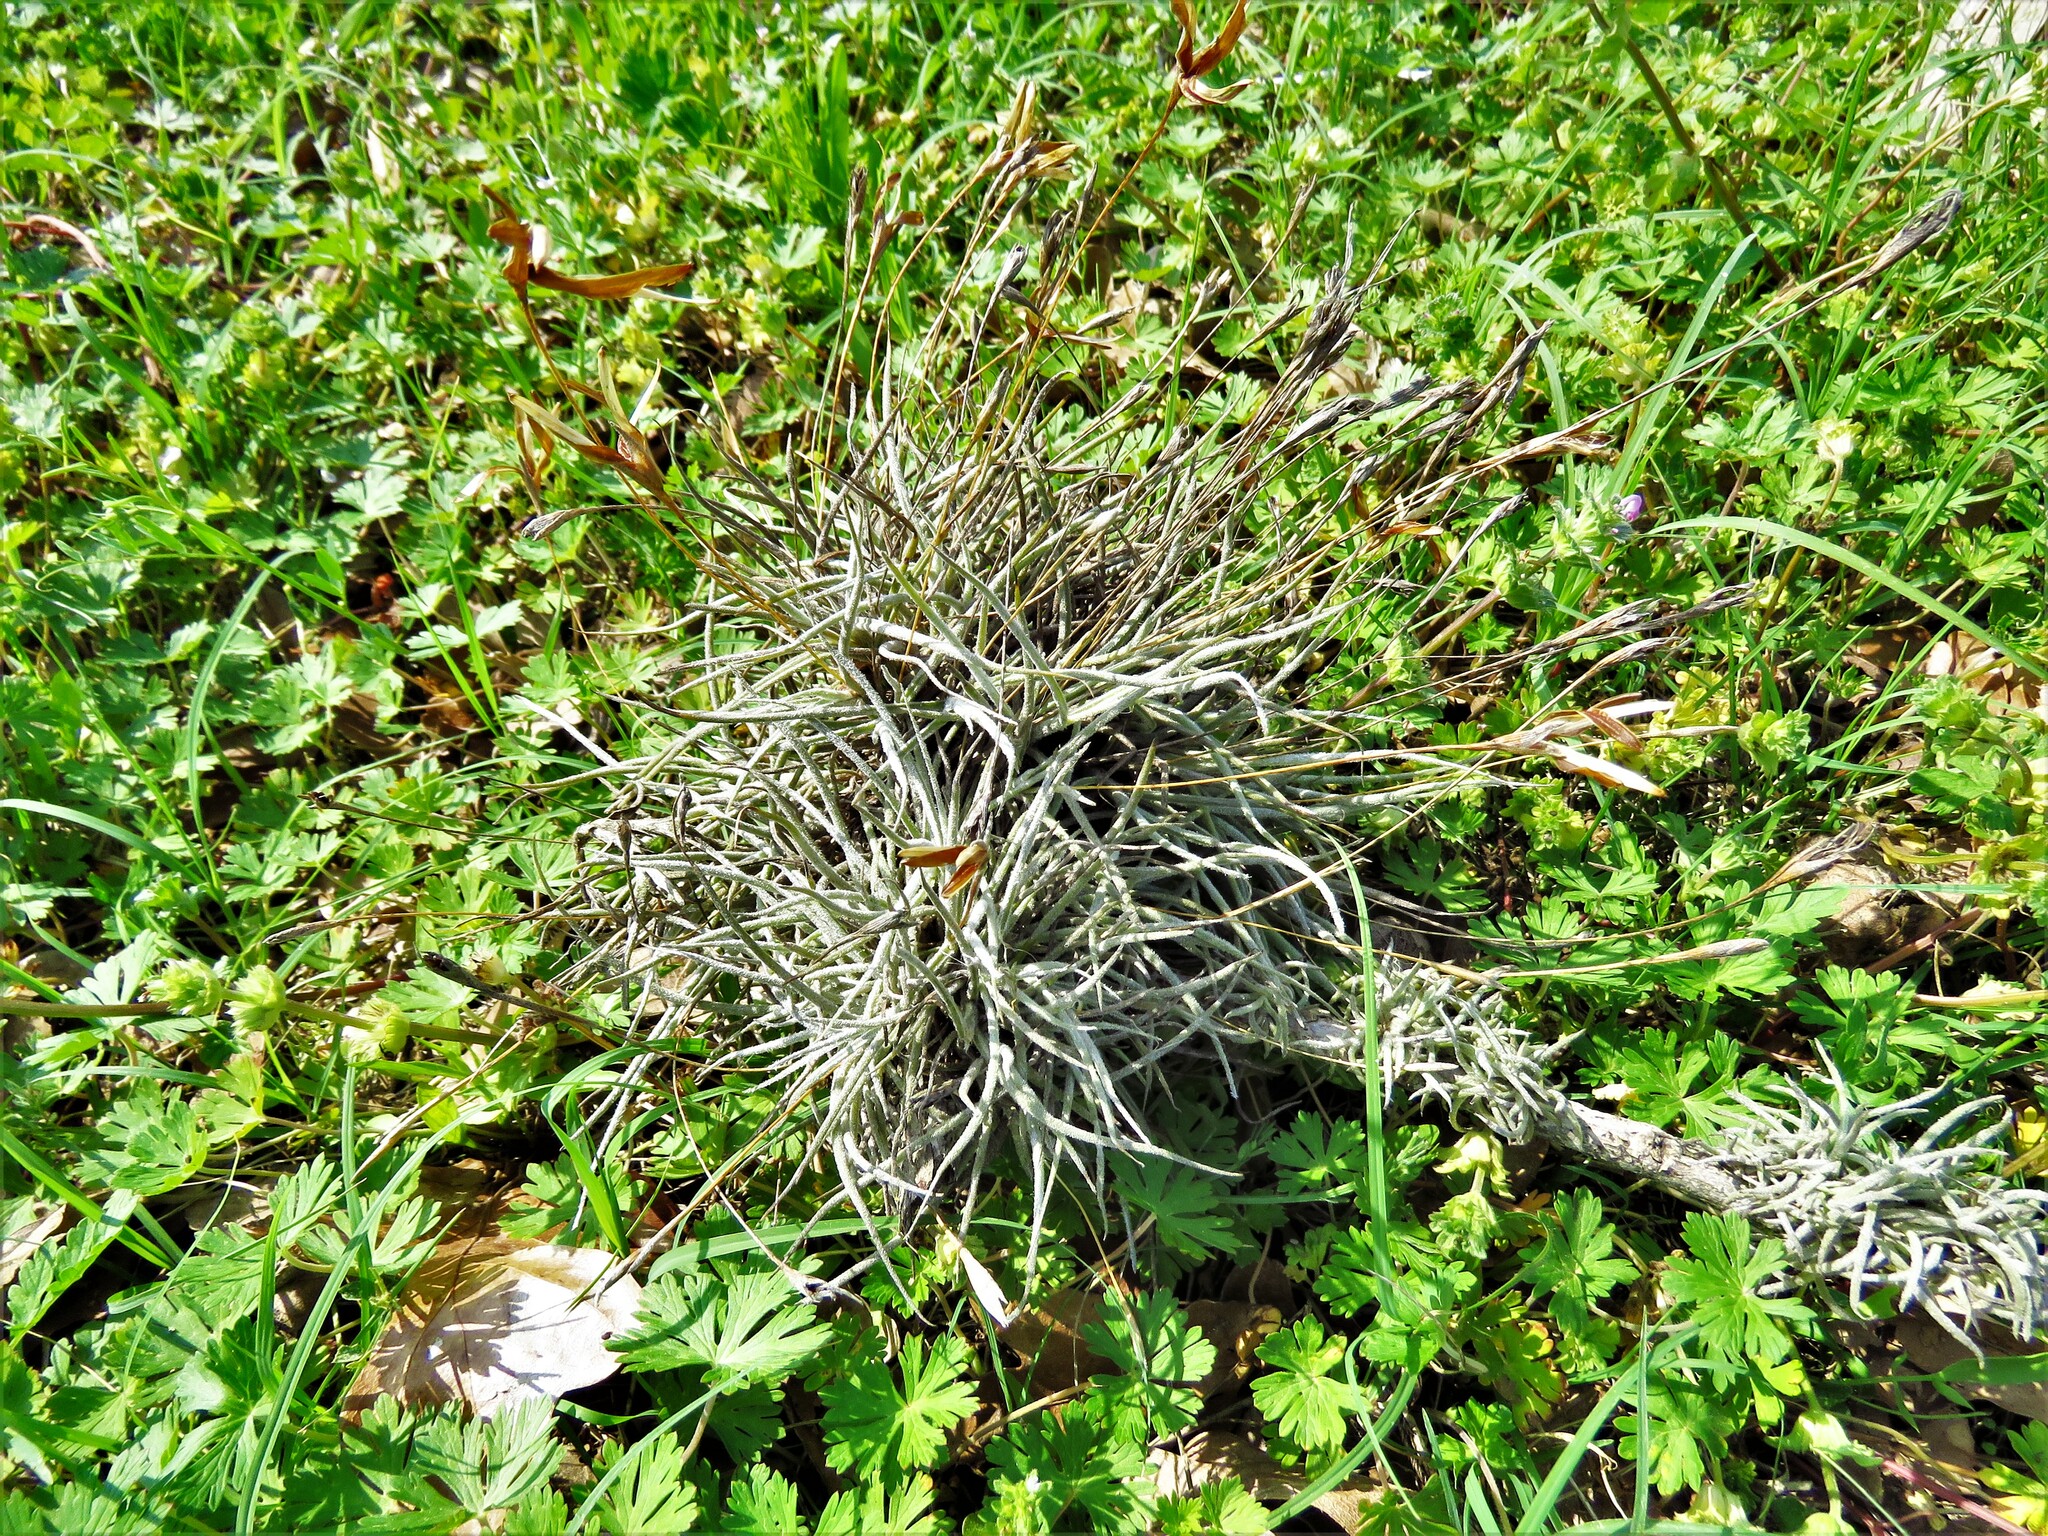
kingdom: Plantae
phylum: Tracheophyta
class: Liliopsida
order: Poales
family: Bromeliaceae
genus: Tillandsia
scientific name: Tillandsia recurvata
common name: Small ballmoss
